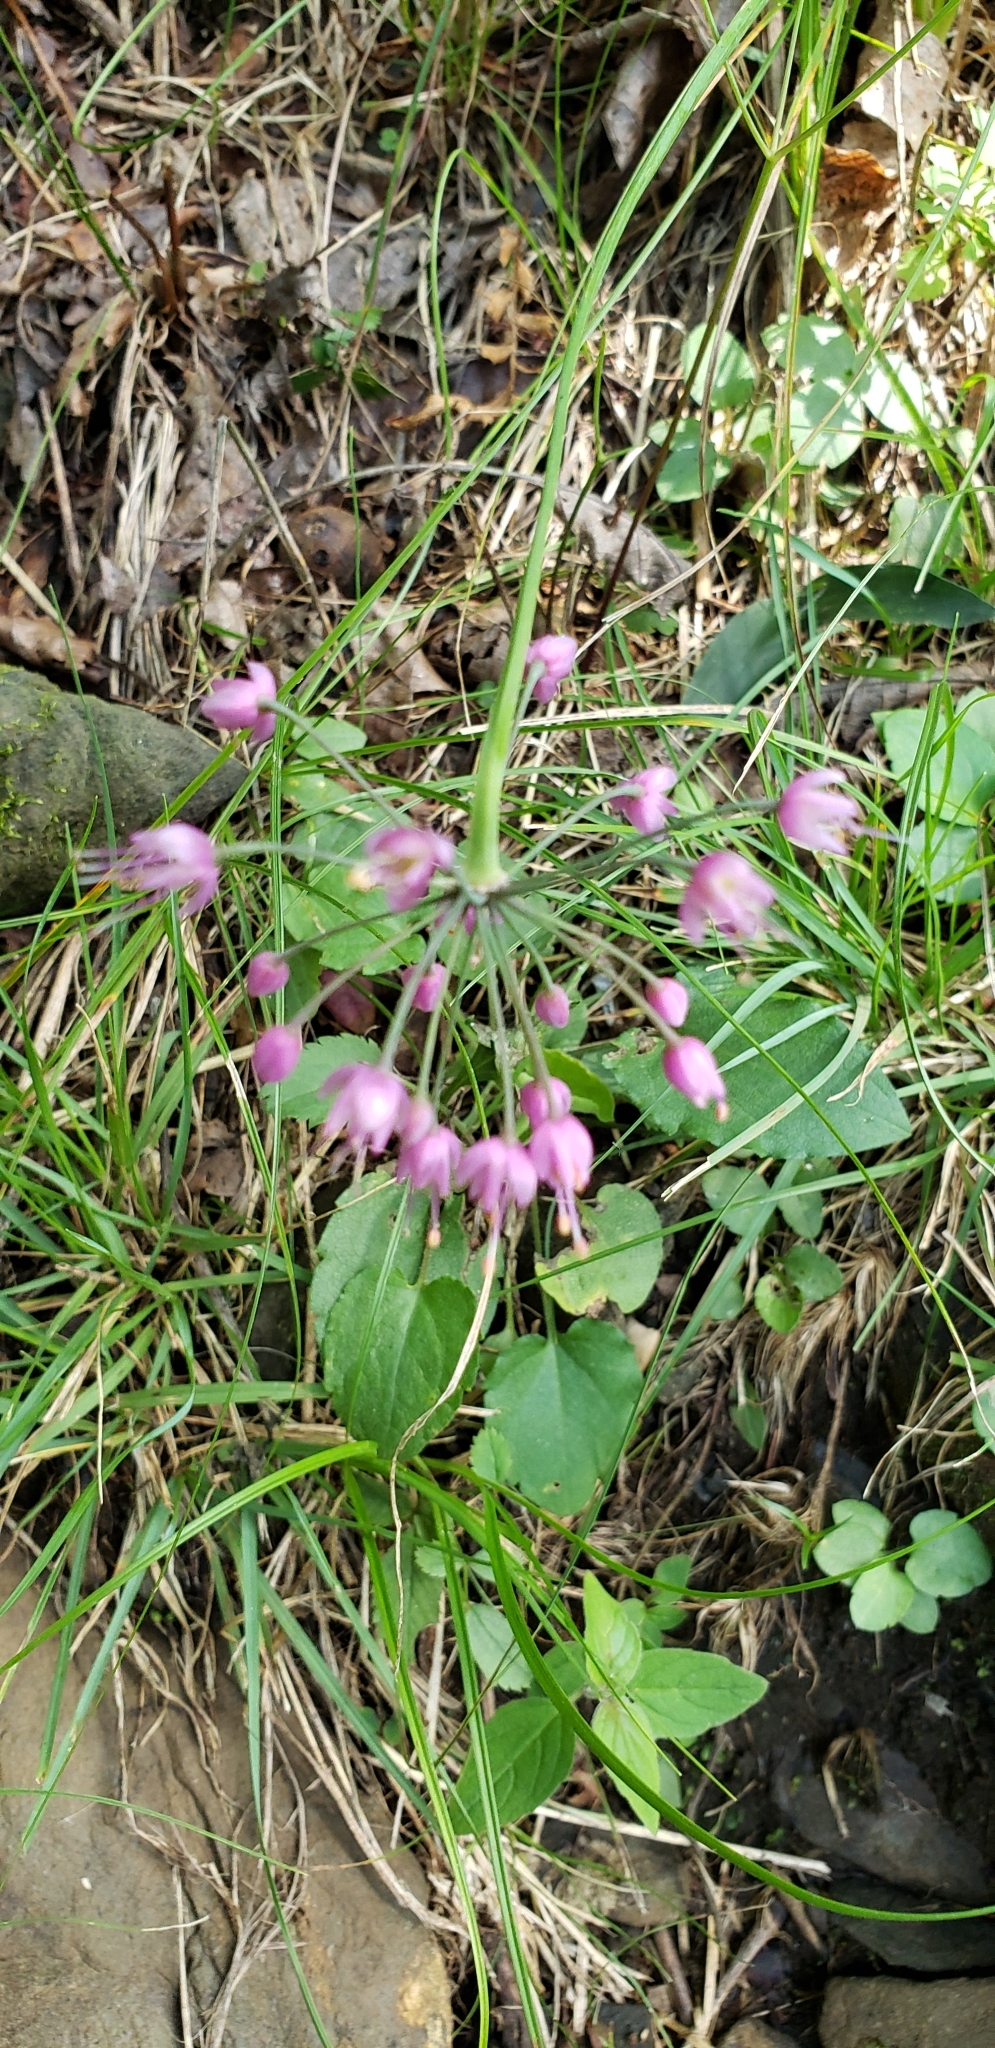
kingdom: Plantae
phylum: Tracheophyta
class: Liliopsida
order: Asparagales
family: Amaryllidaceae
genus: Allium
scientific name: Allium cernuum
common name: Nodding onion
